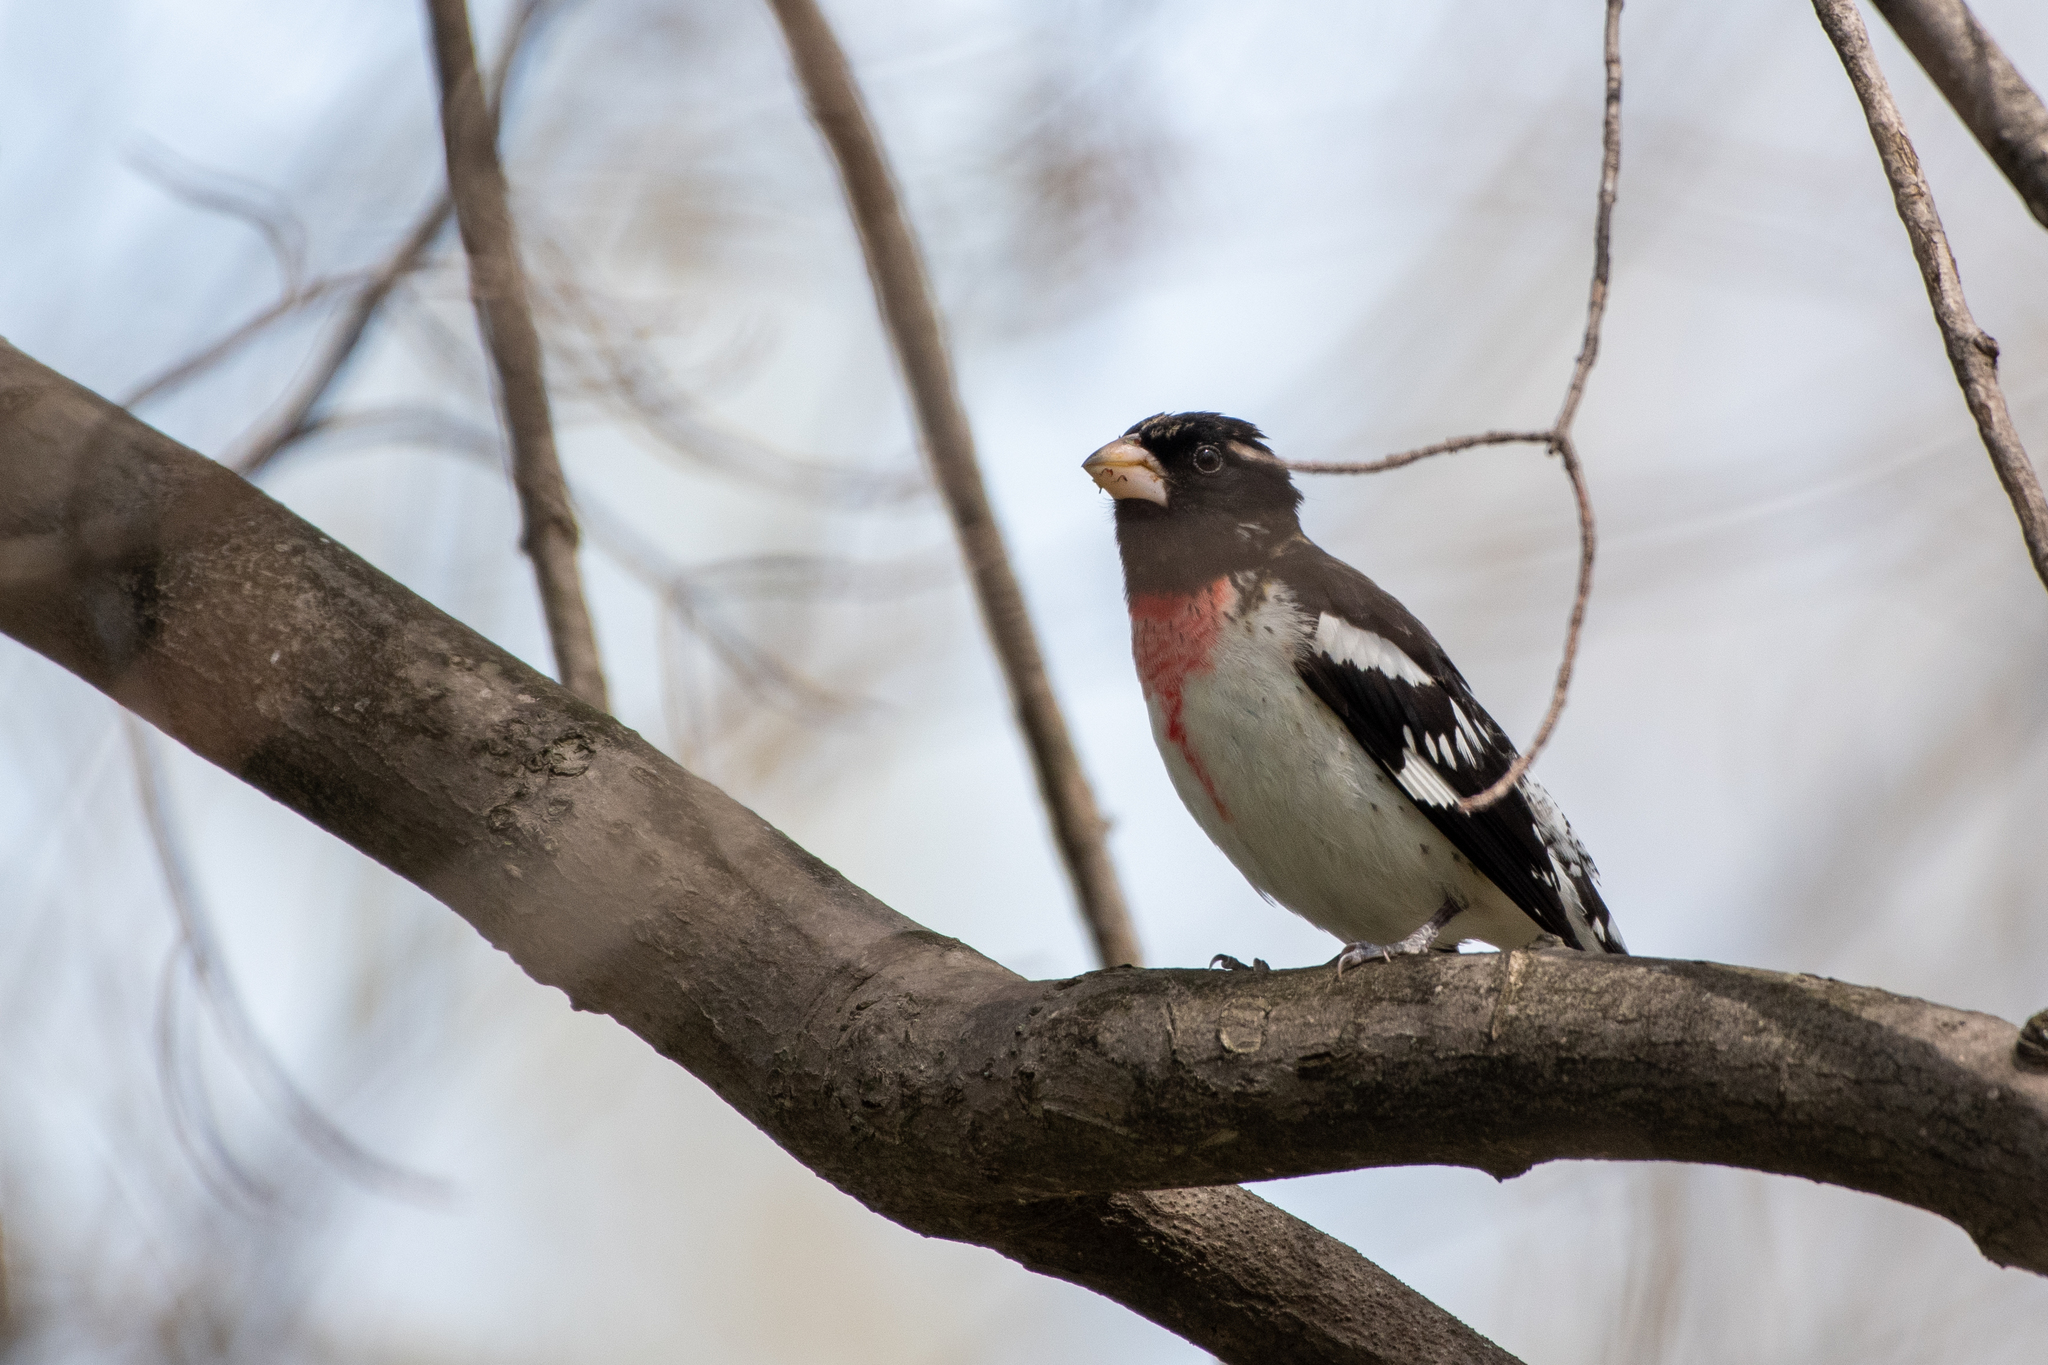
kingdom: Animalia
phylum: Chordata
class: Aves
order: Passeriformes
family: Cardinalidae
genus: Pheucticus
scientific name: Pheucticus ludovicianus
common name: Rose-breasted grosbeak
